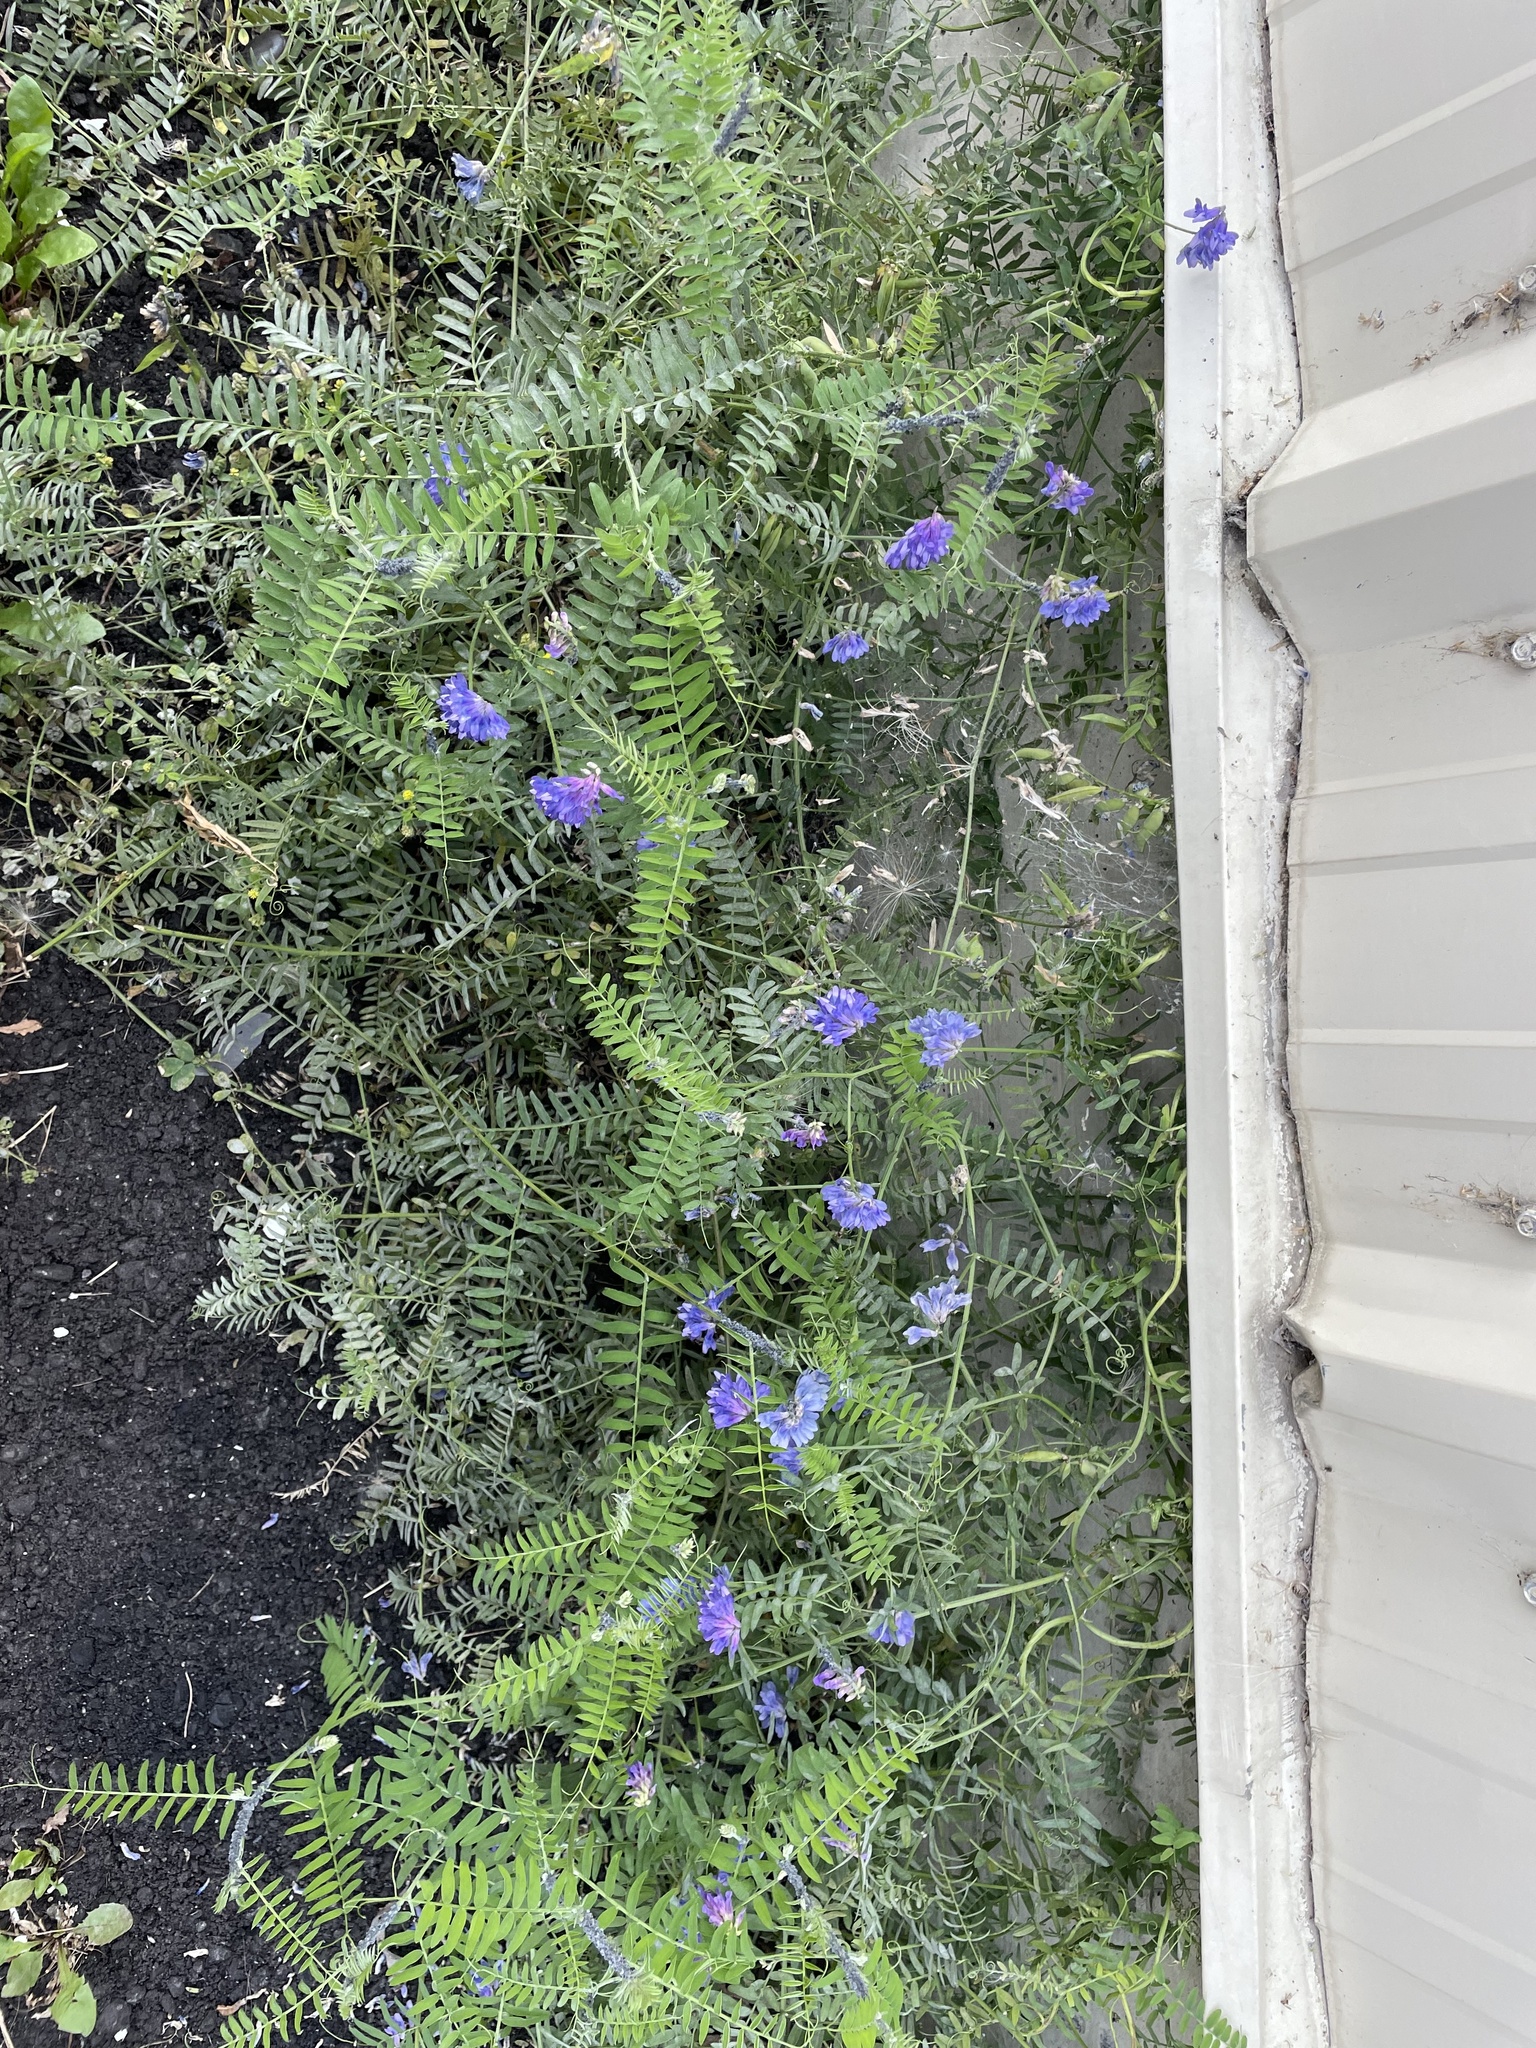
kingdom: Plantae
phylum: Tracheophyta
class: Magnoliopsida
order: Fabales
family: Fabaceae
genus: Vicia
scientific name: Vicia cracca
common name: Bird vetch
